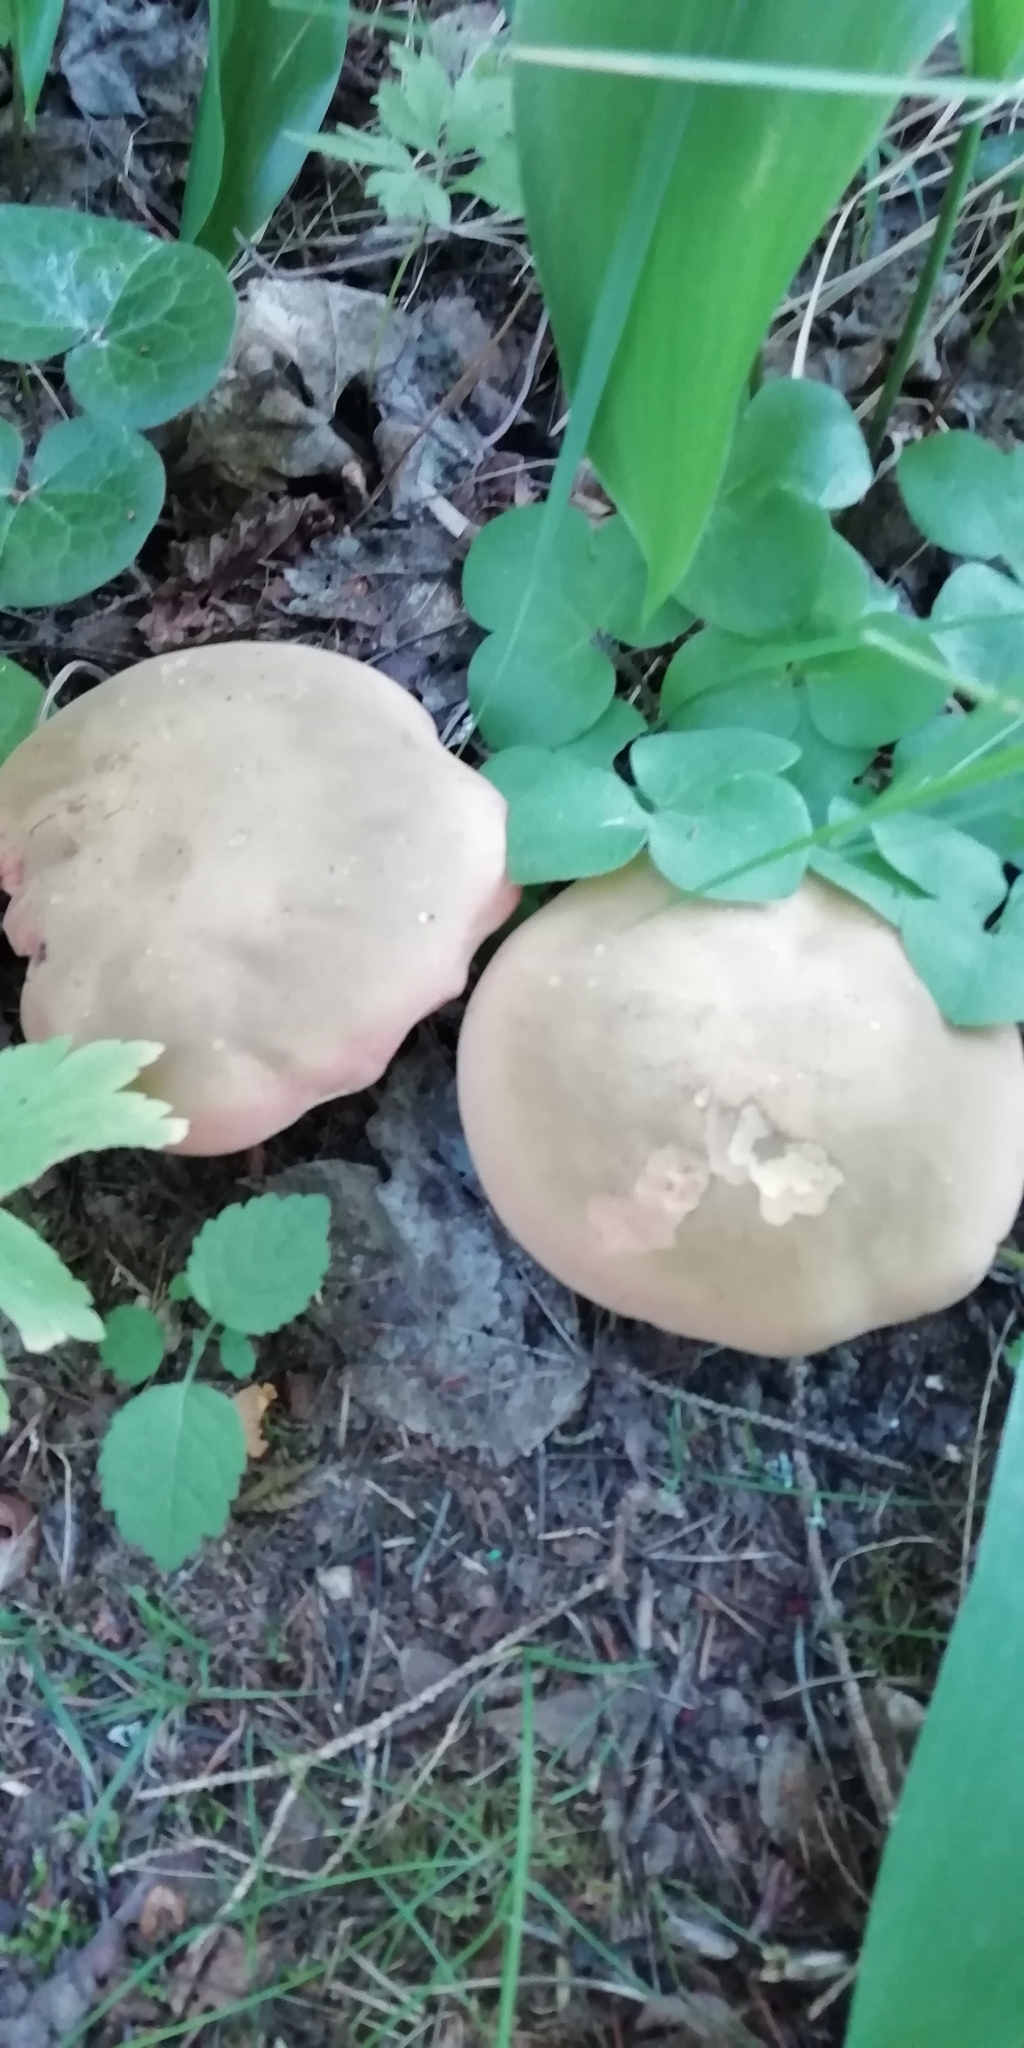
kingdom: Fungi
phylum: Basidiomycota
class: Agaricomycetes
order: Boletales
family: Boletaceae
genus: Suillellus
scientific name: Suillellus luridus
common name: Lurid bolete
